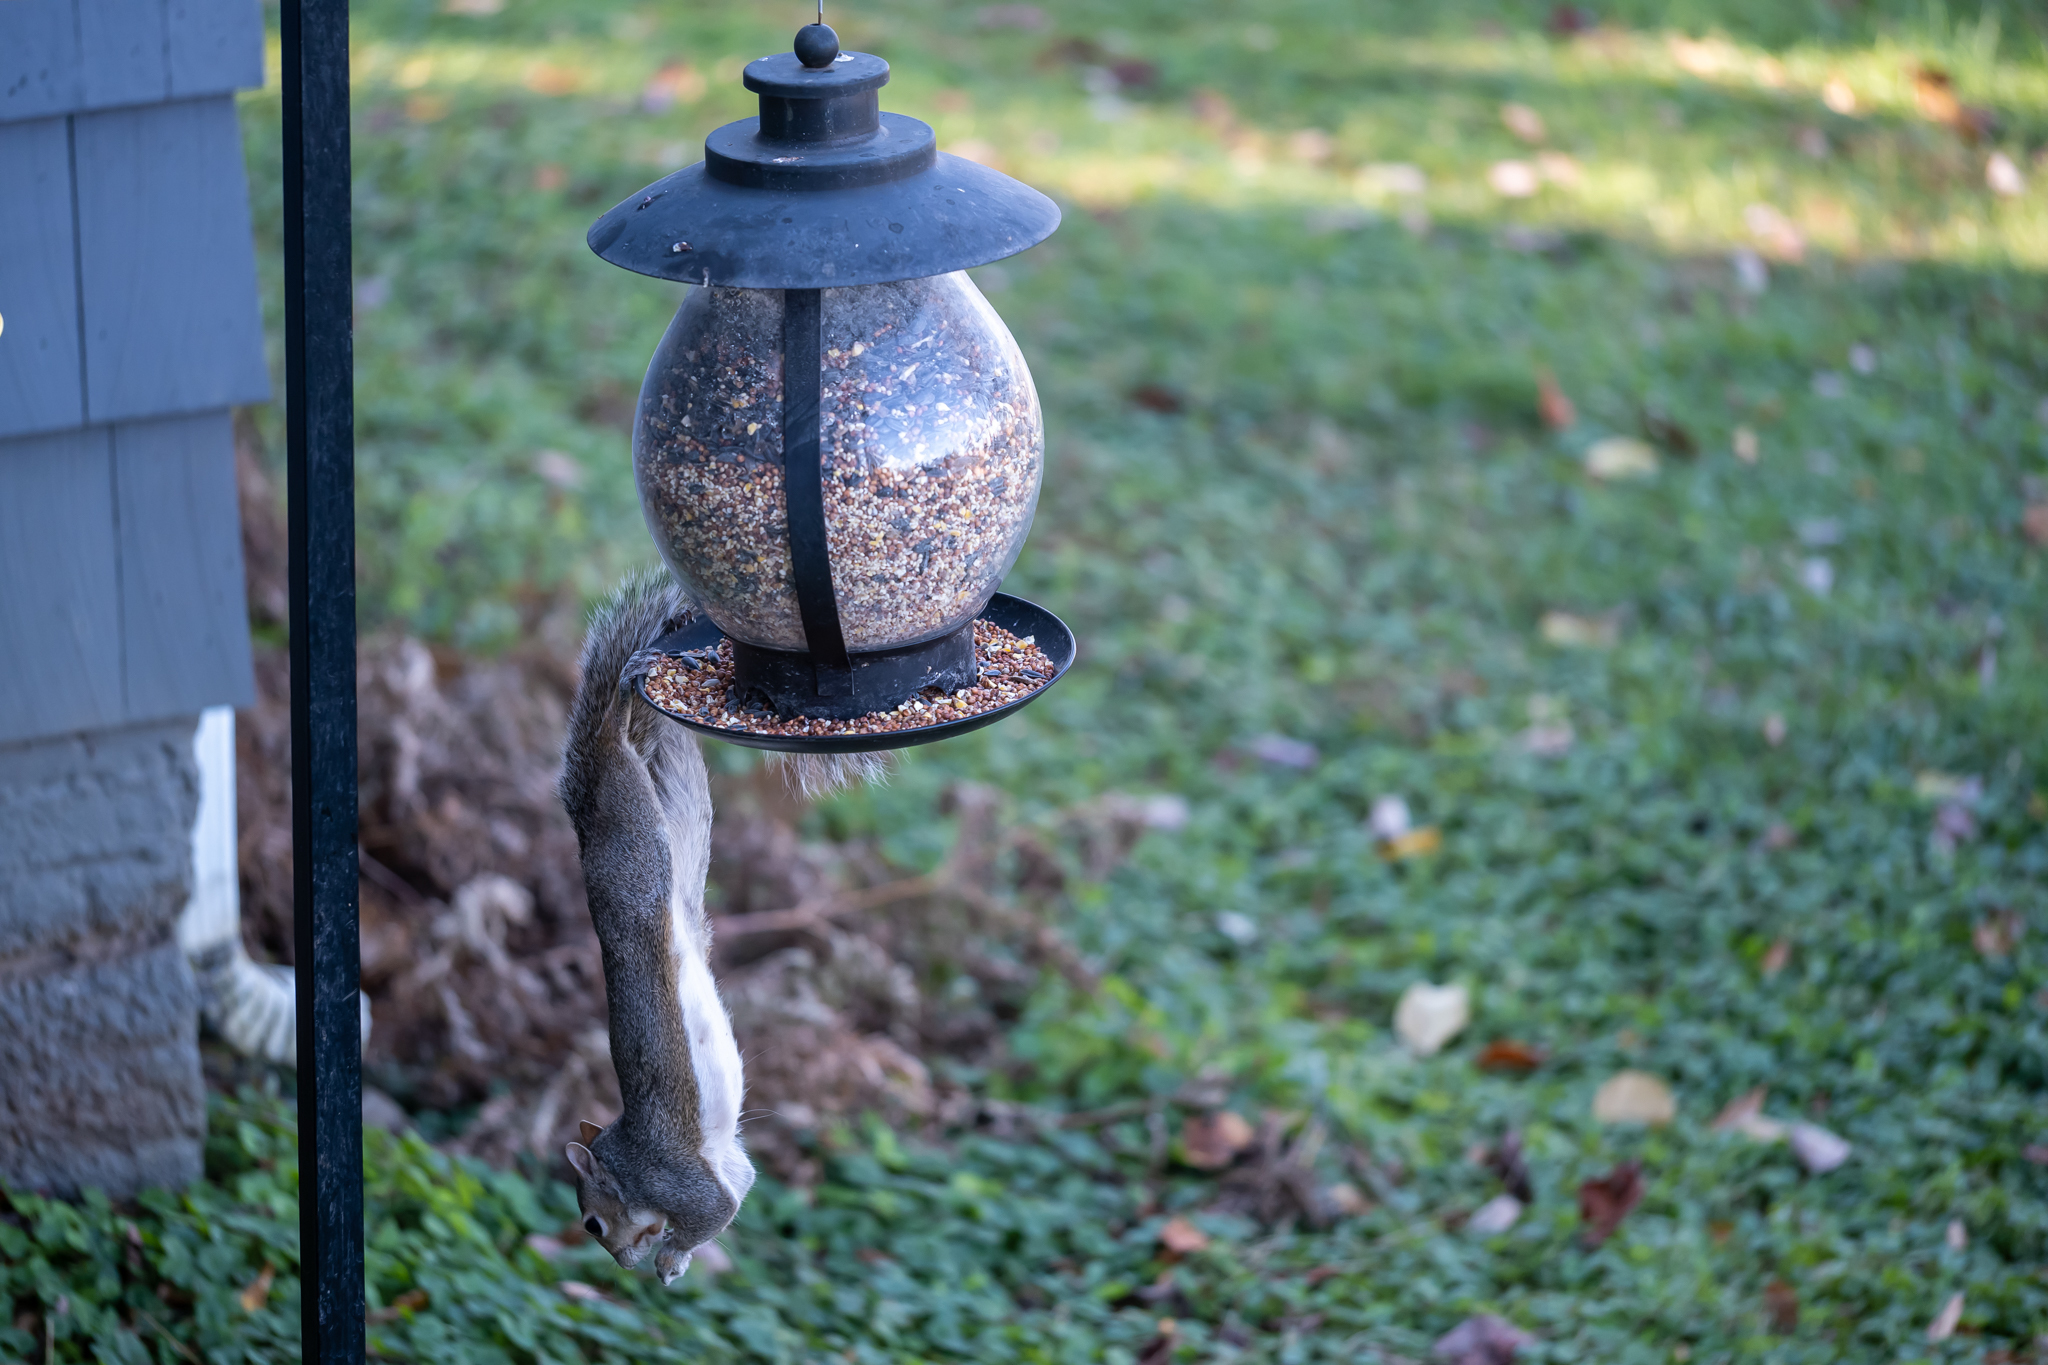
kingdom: Animalia
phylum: Chordata
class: Mammalia
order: Rodentia
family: Sciuridae
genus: Sciurus
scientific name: Sciurus carolinensis
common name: Eastern gray squirrel
